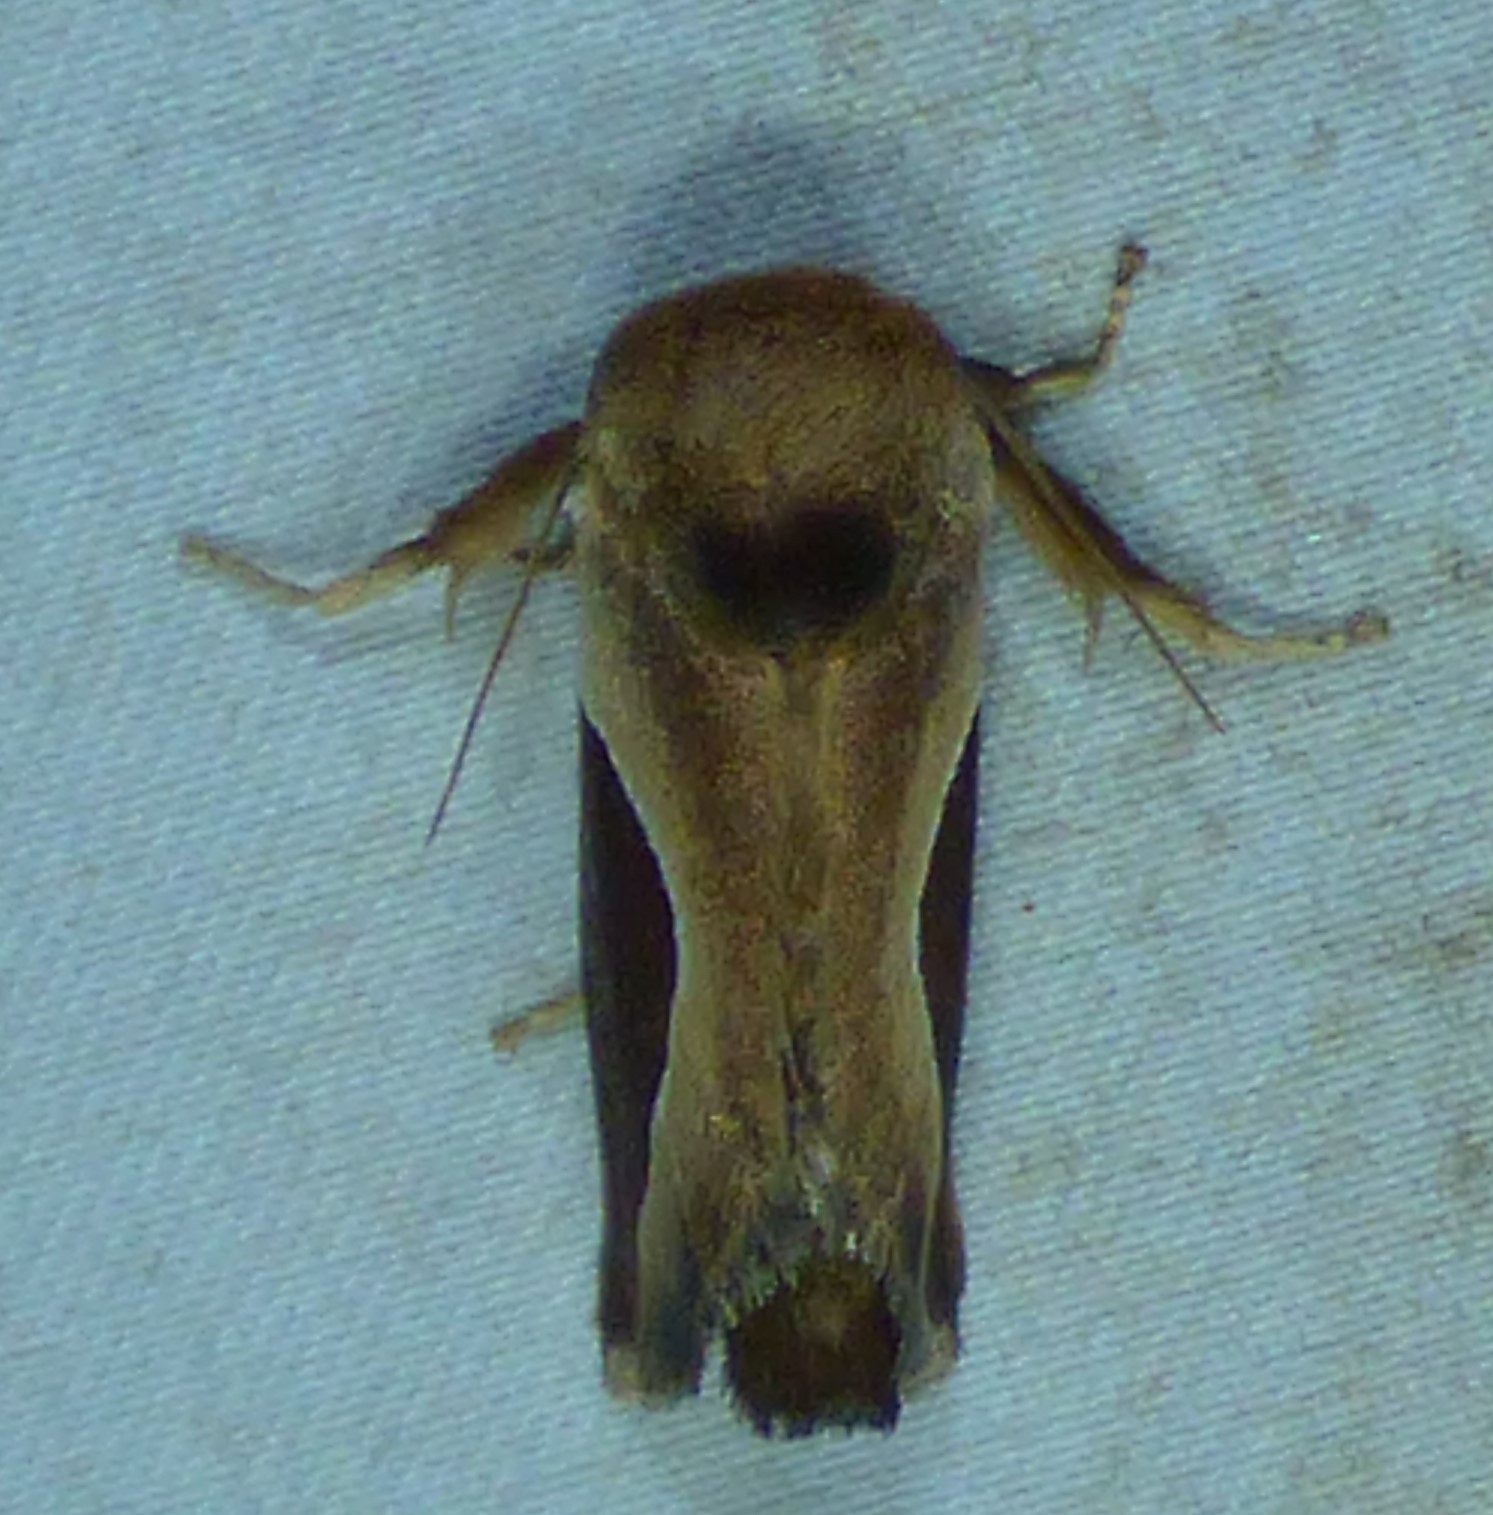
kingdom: Animalia
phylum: Arthropoda
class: Insecta
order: Lepidoptera
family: Limacodidae
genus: Prolimacodes
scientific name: Prolimacodes badia
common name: Skiff moth
